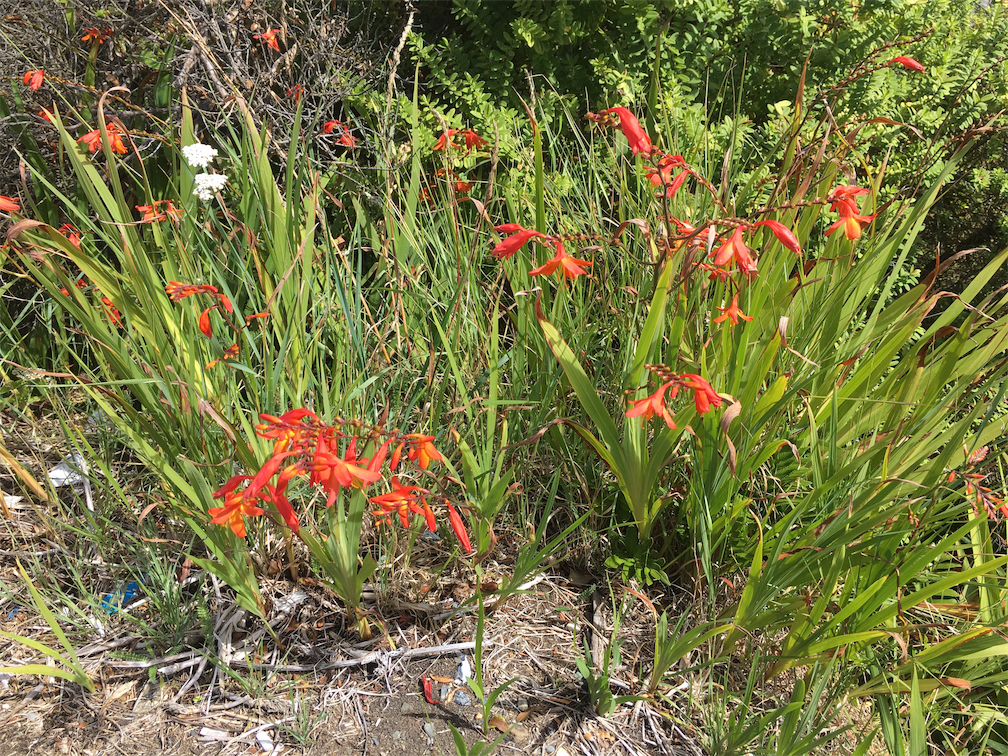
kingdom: Plantae
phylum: Tracheophyta
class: Liliopsida
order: Asparagales
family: Iridaceae
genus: Crocosmia
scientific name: Crocosmia crocosmiiflora
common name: Montbretia
